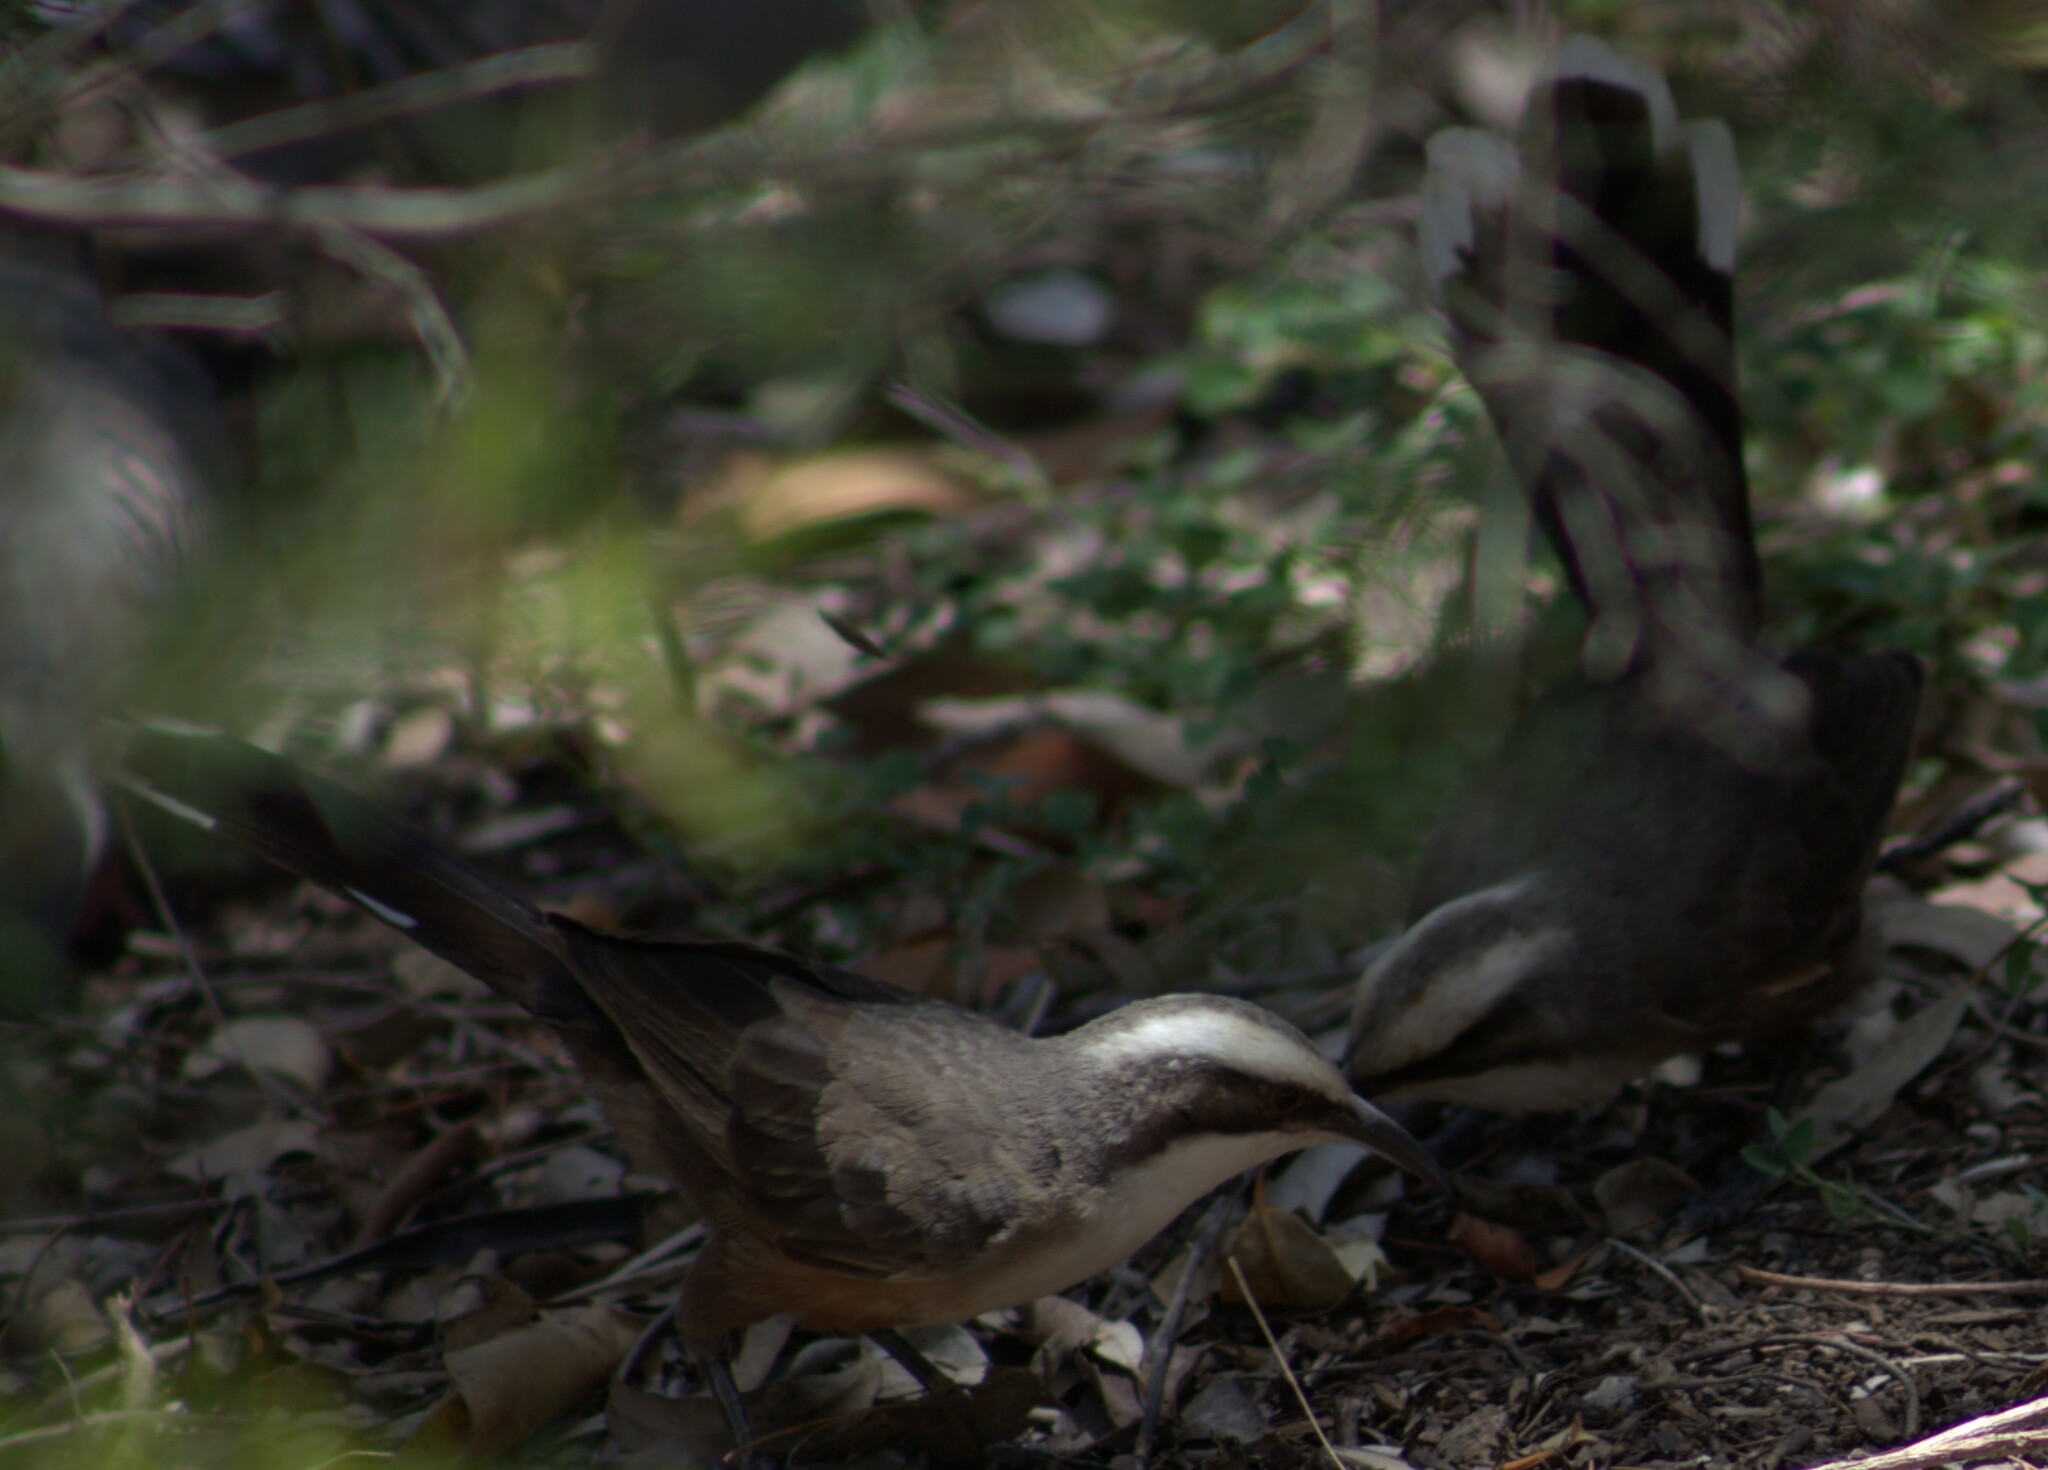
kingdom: Animalia
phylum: Chordata
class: Aves
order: Passeriformes
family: Pomatostomidae
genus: Pomatostomus
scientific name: Pomatostomus temporalis
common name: Grey-crowned babbler
